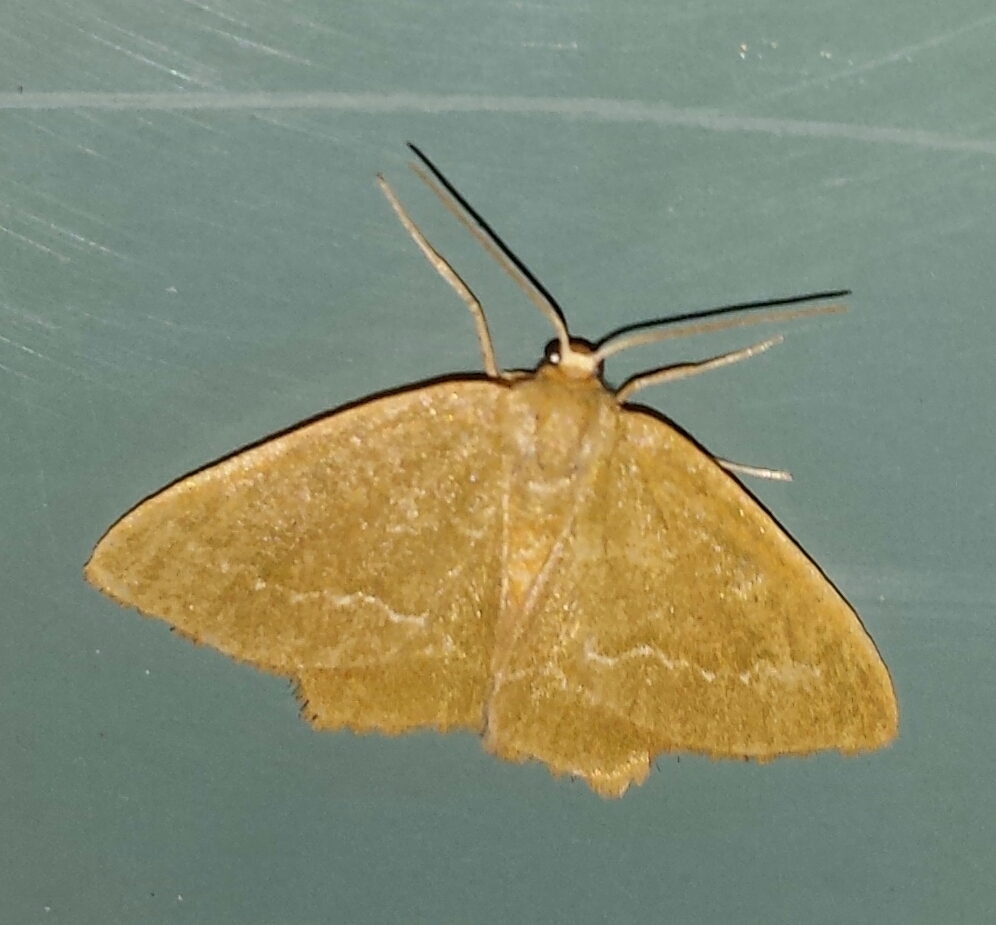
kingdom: Animalia
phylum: Arthropoda
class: Insecta
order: Lepidoptera
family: Geometridae
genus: Thalera
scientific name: Thalera pistasciaria
